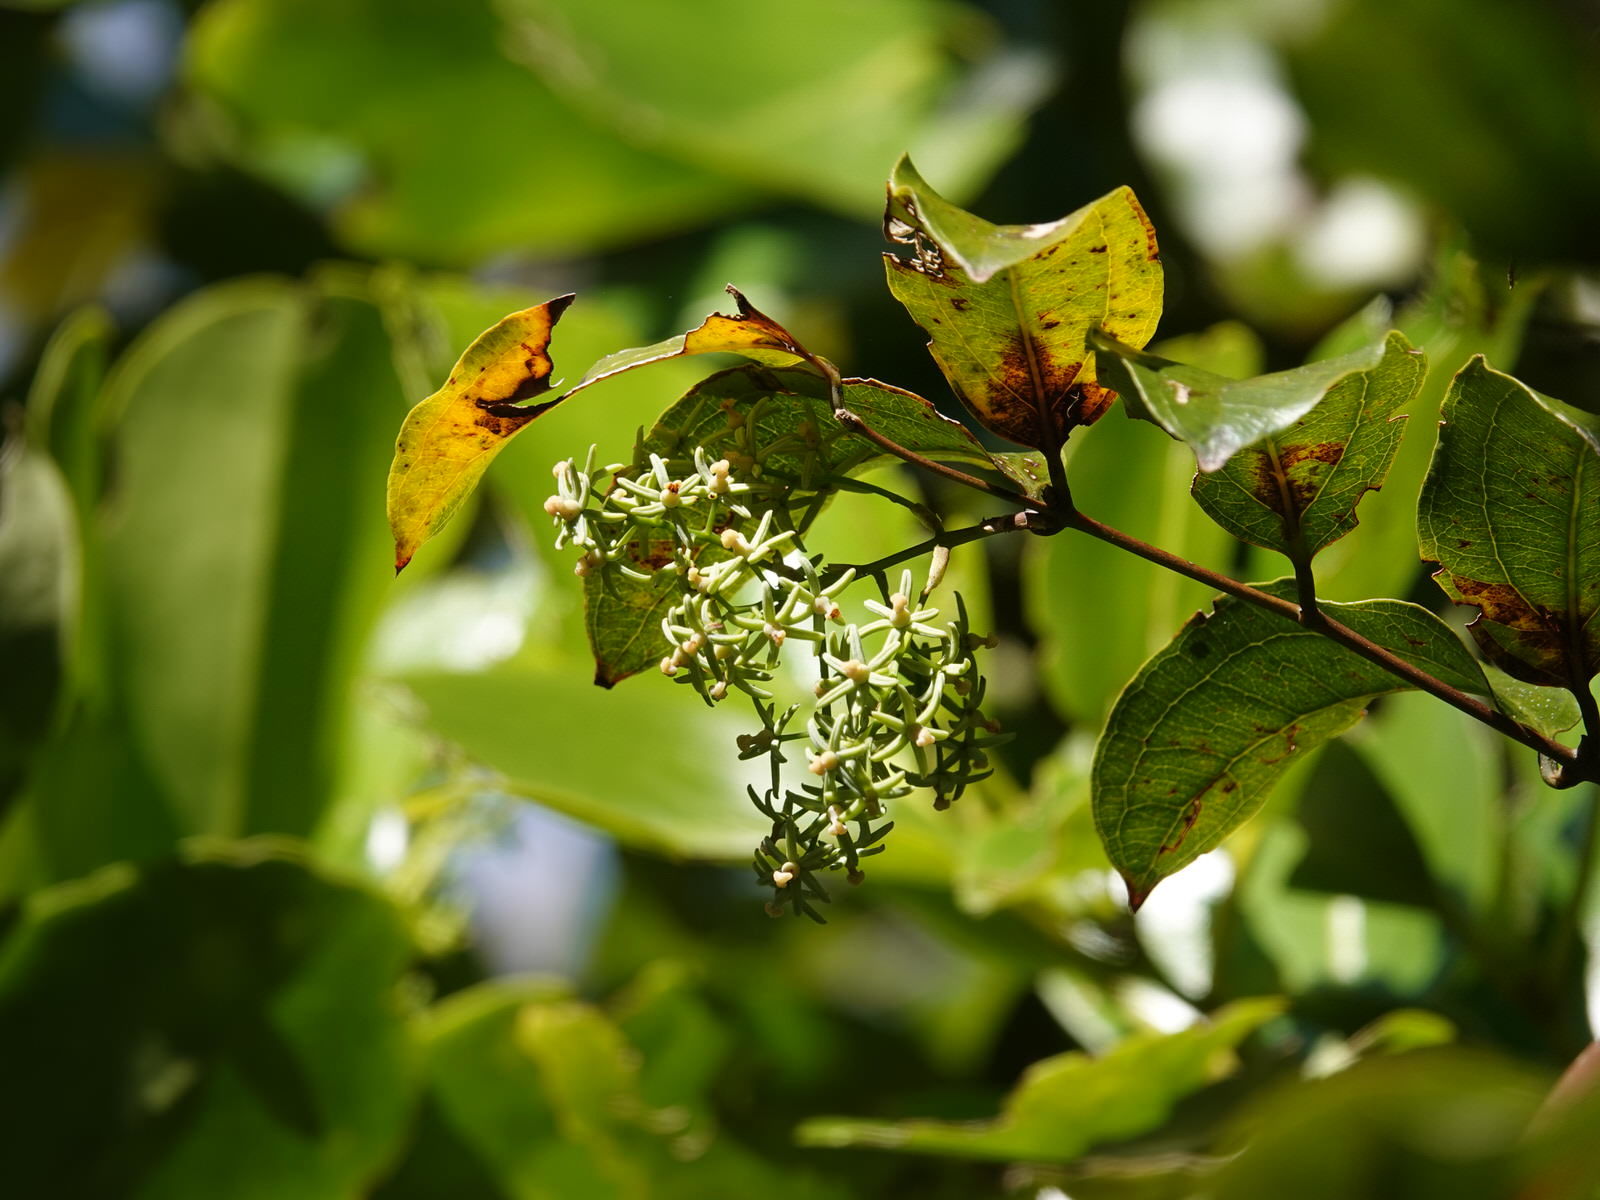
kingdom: Plantae
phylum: Tracheophyta
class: Liliopsida
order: Liliales
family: Ripogonaceae
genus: Ripogonum
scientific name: Ripogonum scandens
